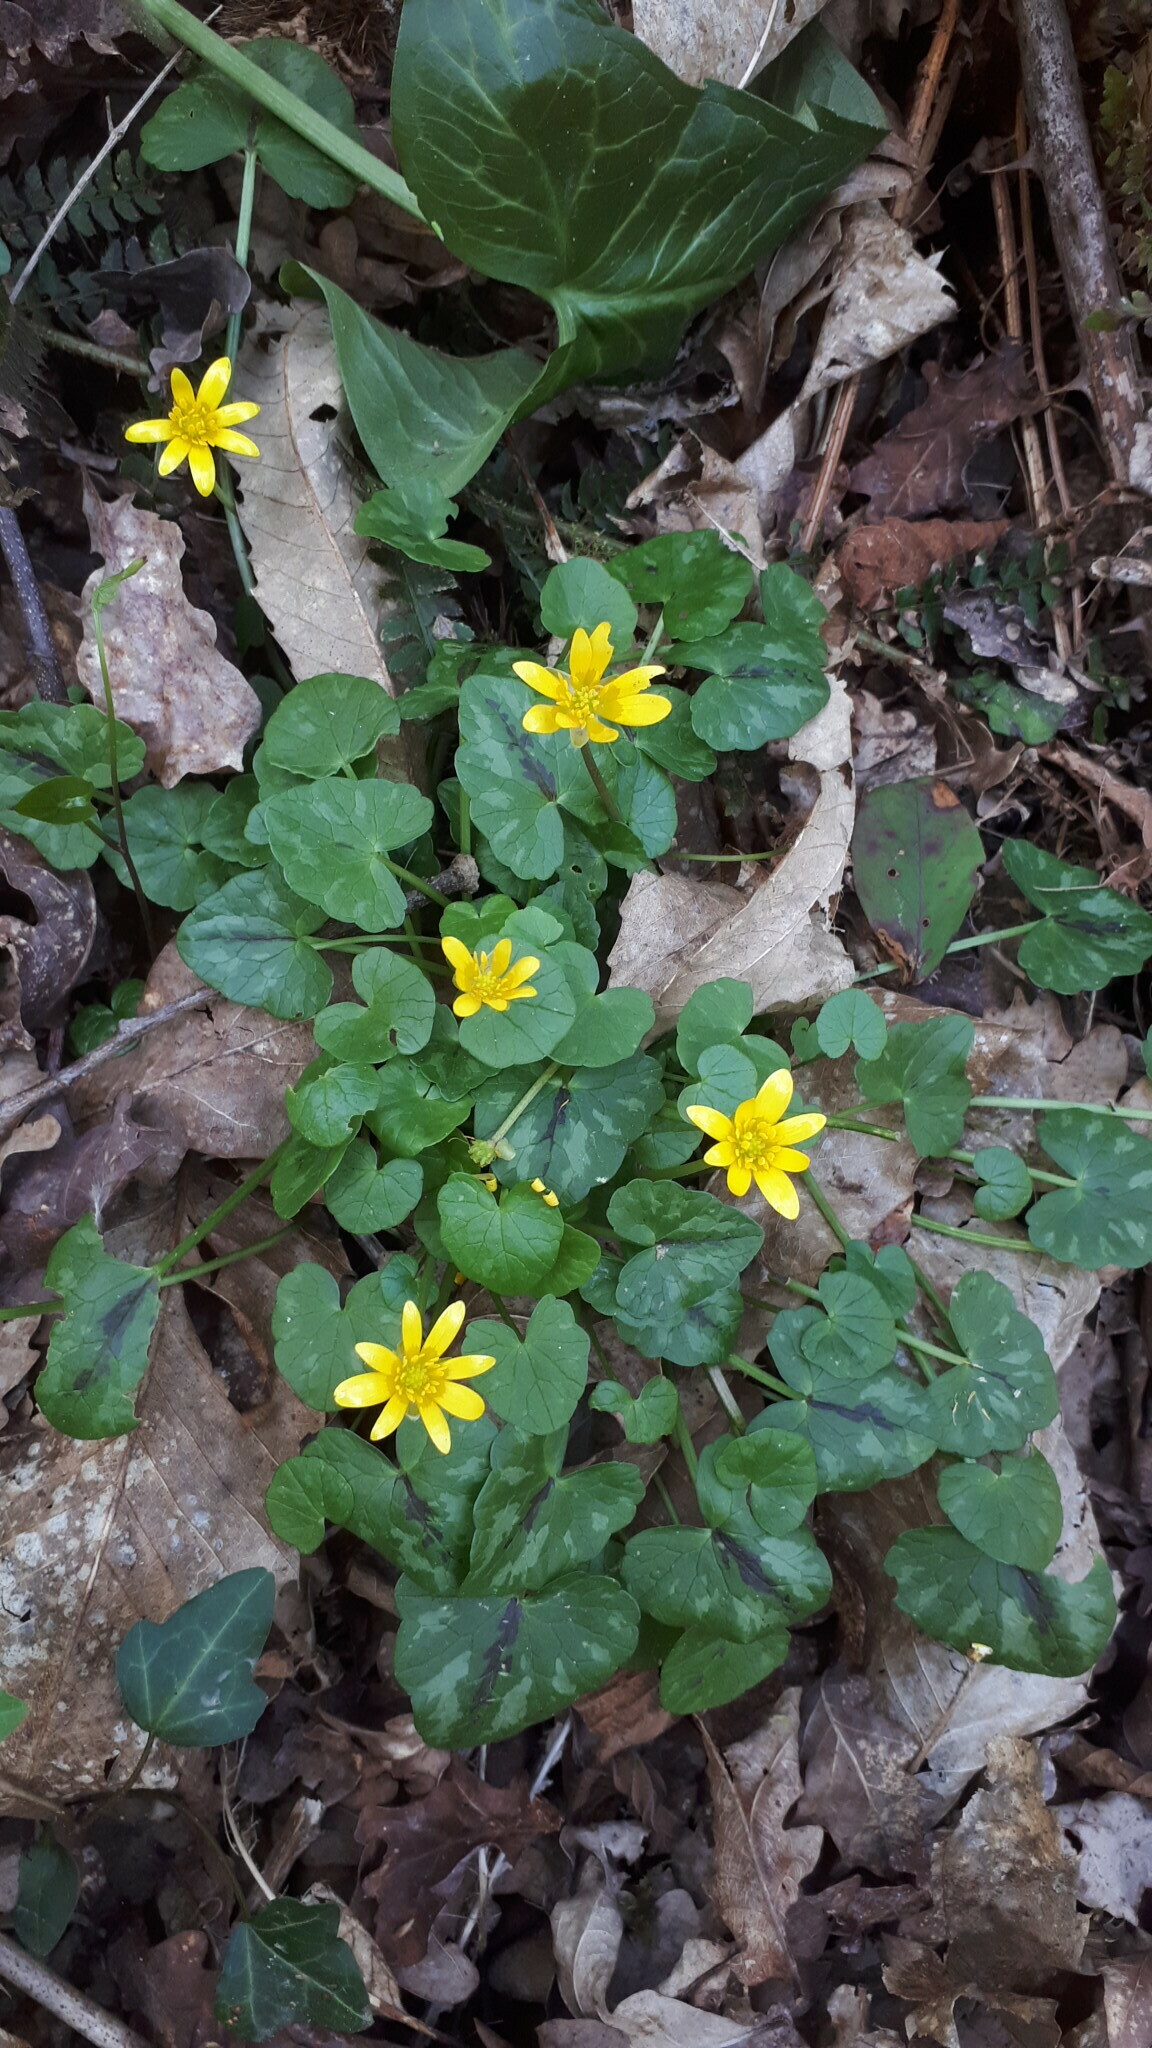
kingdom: Plantae
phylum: Tracheophyta
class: Magnoliopsida
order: Ranunculales
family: Ranunculaceae
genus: Ficaria
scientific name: Ficaria verna
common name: Lesser celandine
